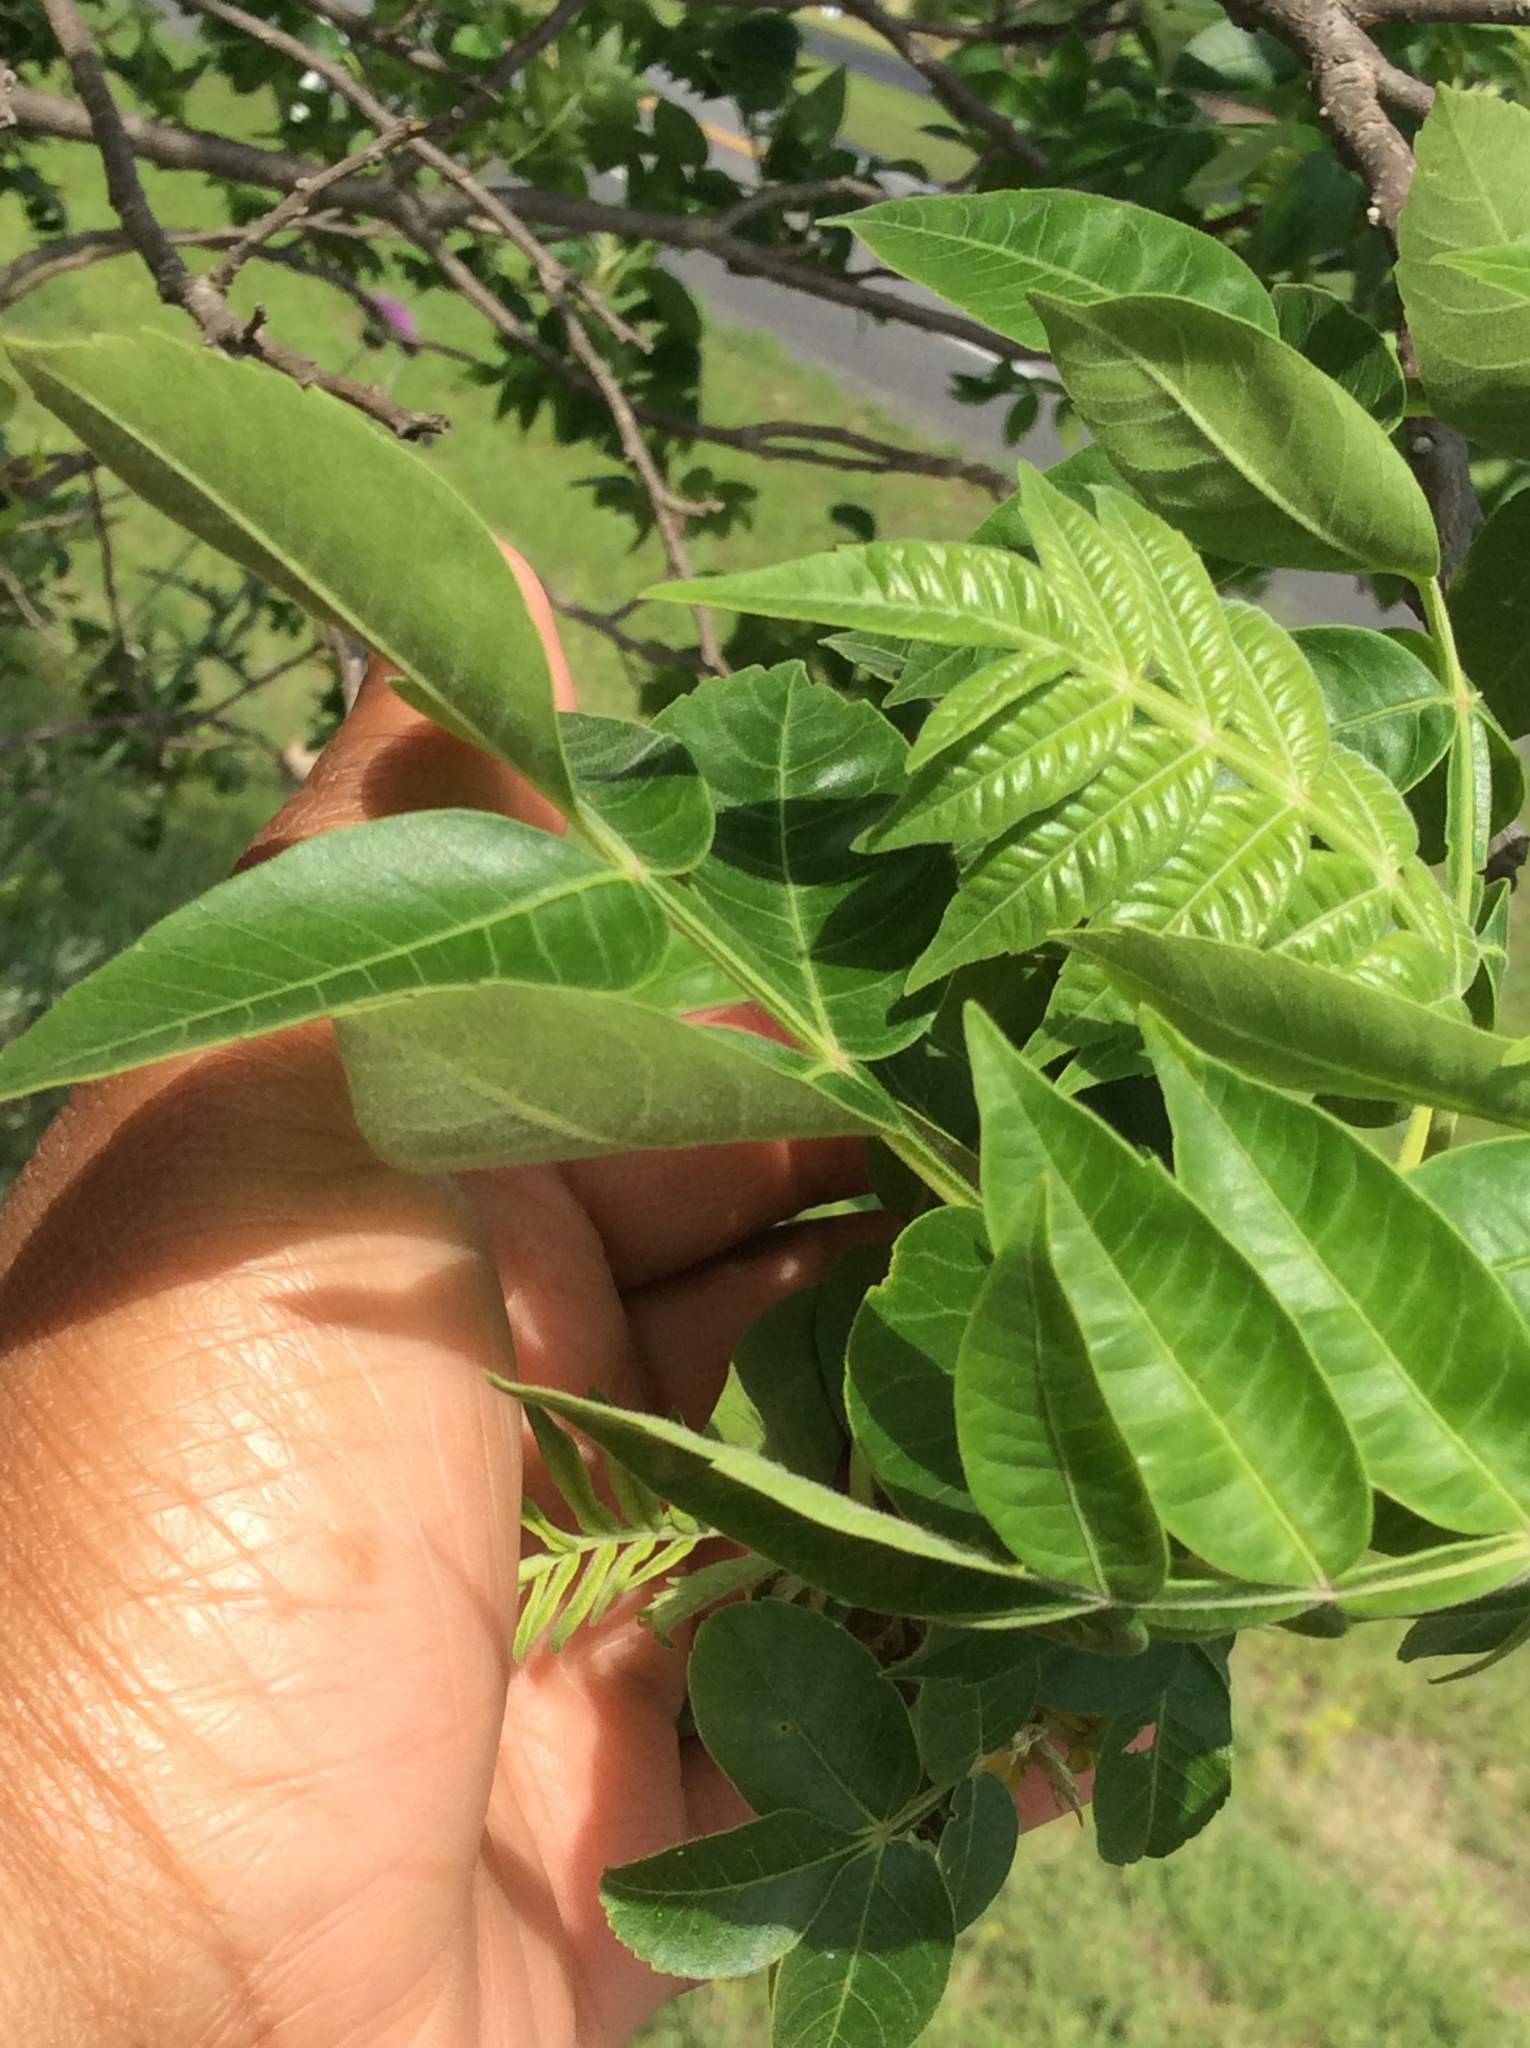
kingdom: Plantae
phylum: Tracheophyta
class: Magnoliopsida
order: Sapindales
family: Anacardiaceae
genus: Rhus
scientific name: Rhus copallina
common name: Shining sumac
